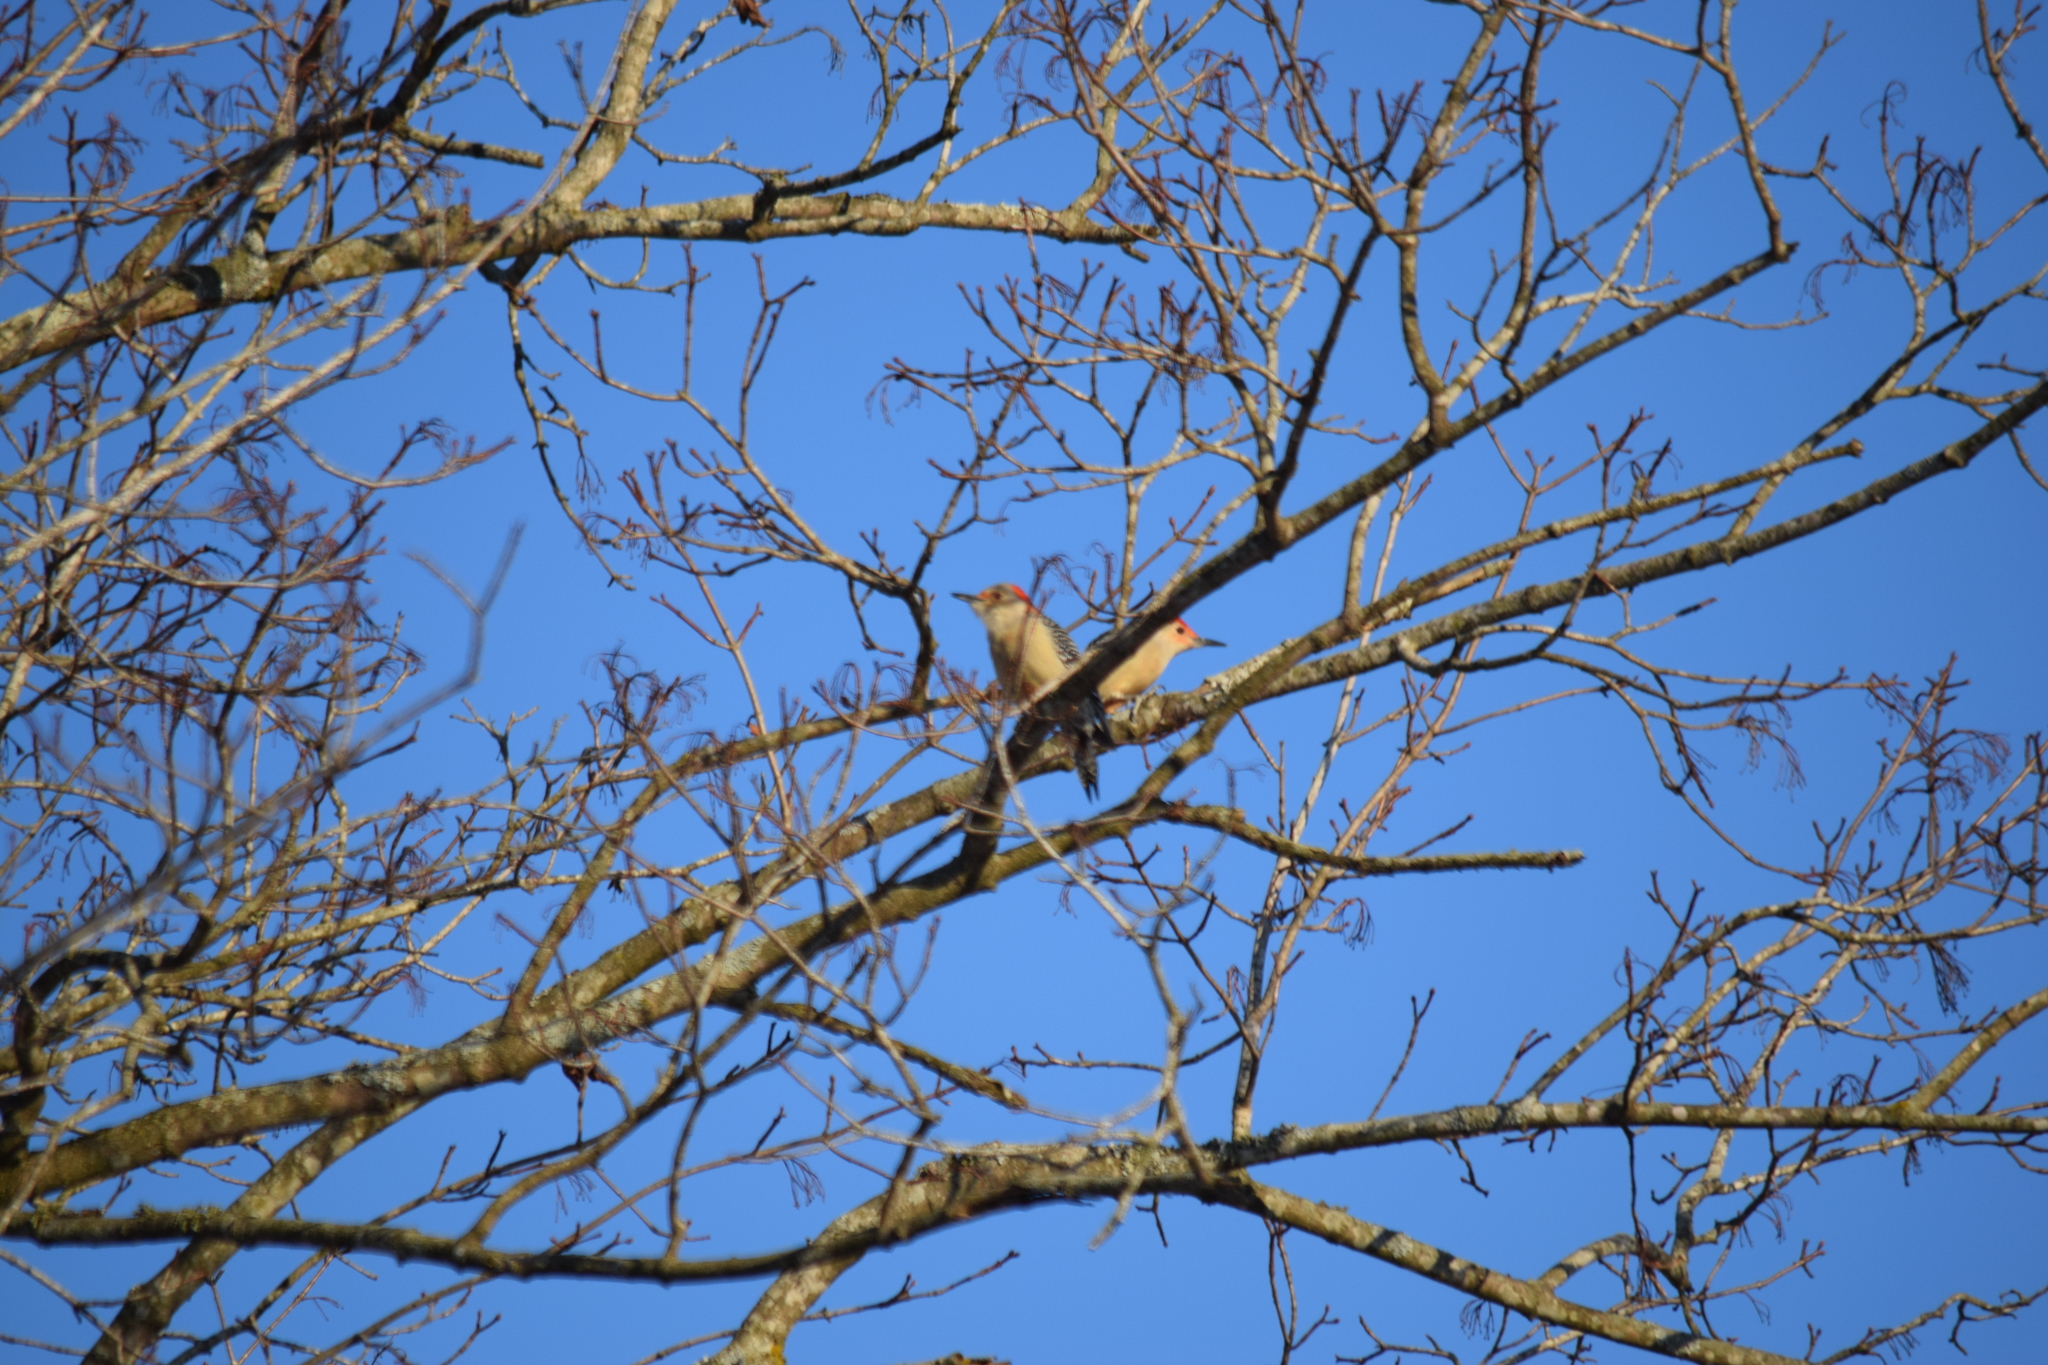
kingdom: Animalia
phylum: Chordata
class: Aves
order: Piciformes
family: Picidae
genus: Melanerpes
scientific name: Melanerpes carolinus
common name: Red-bellied woodpecker
